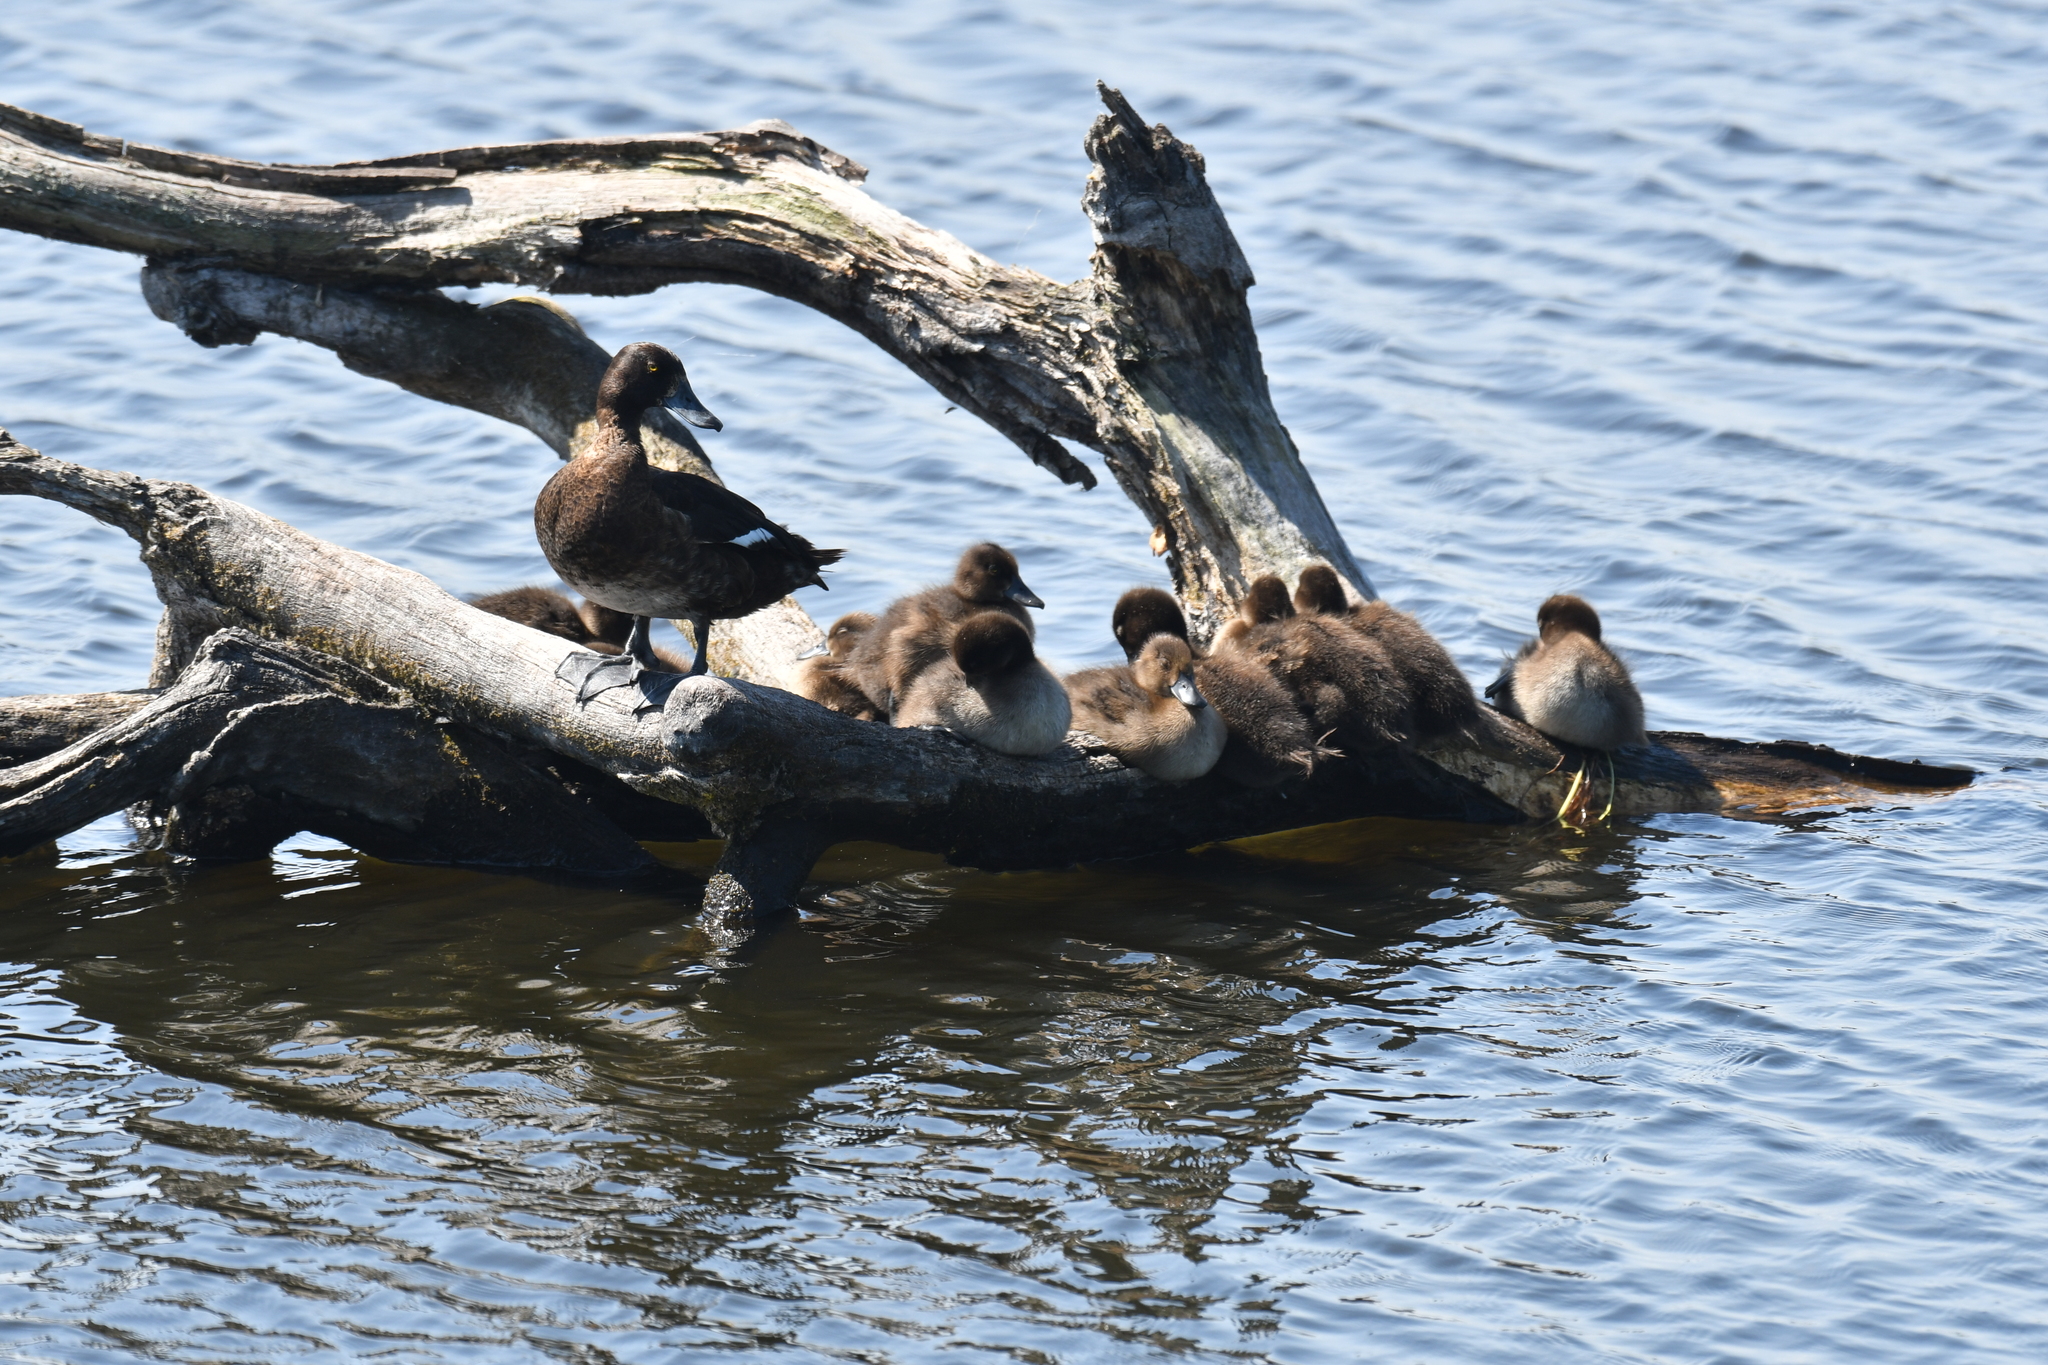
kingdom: Animalia
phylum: Chordata
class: Aves
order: Anseriformes
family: Anatidae
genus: Aythya
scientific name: Aythya fuligula
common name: Tufted duck
